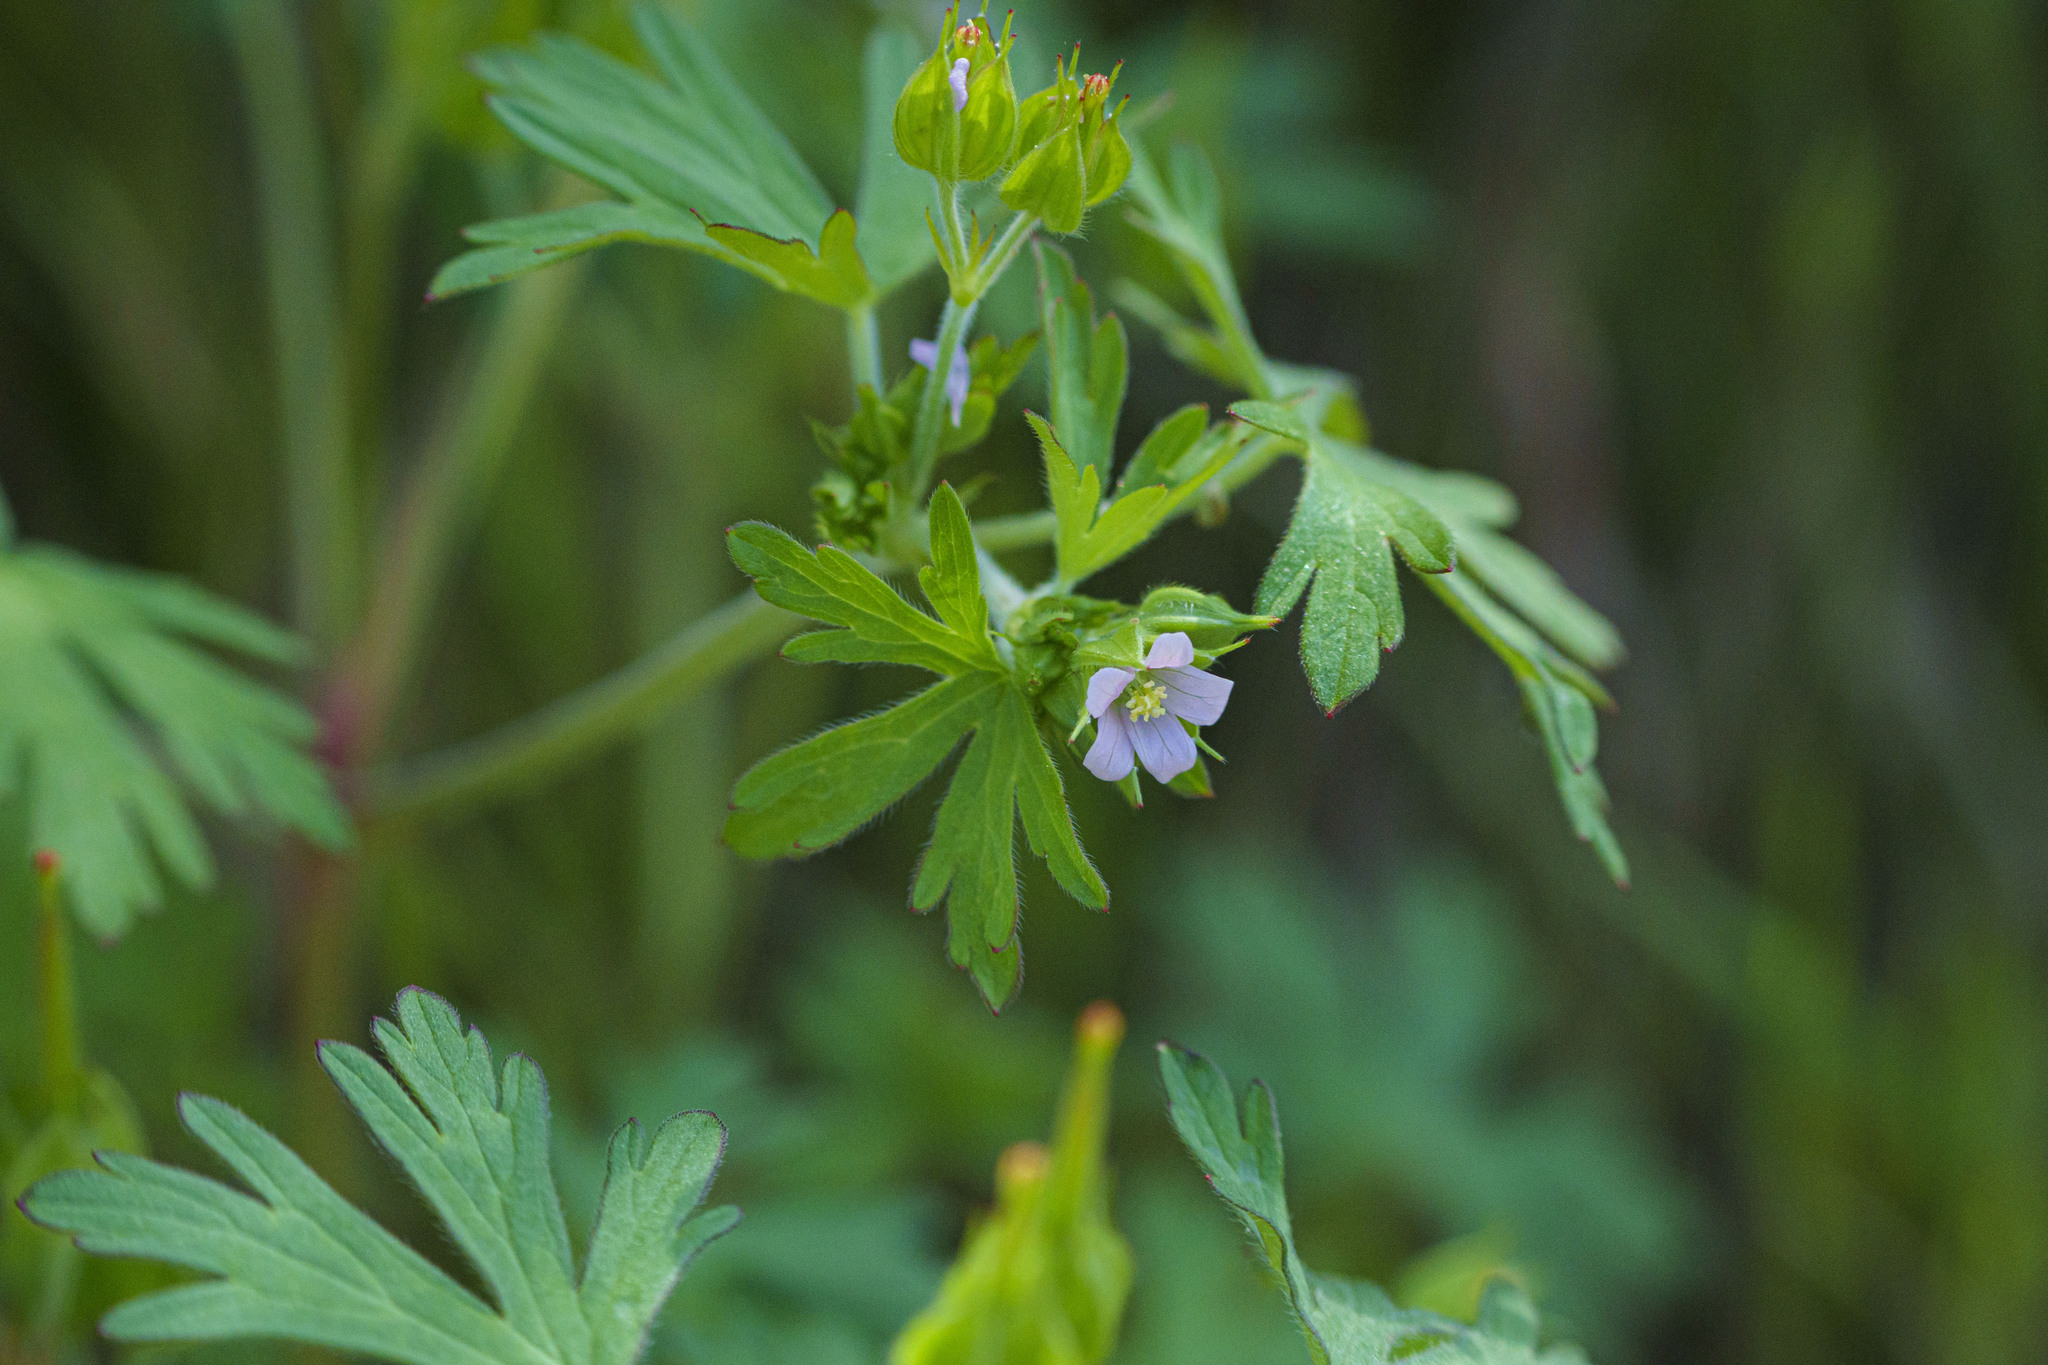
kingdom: Plantae
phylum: Tracheophyta
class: Magnoliopsida
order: Geraniales
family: Geraniaceae
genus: Geranium
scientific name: Geranium carolinianum
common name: Carolina crane's-bill
